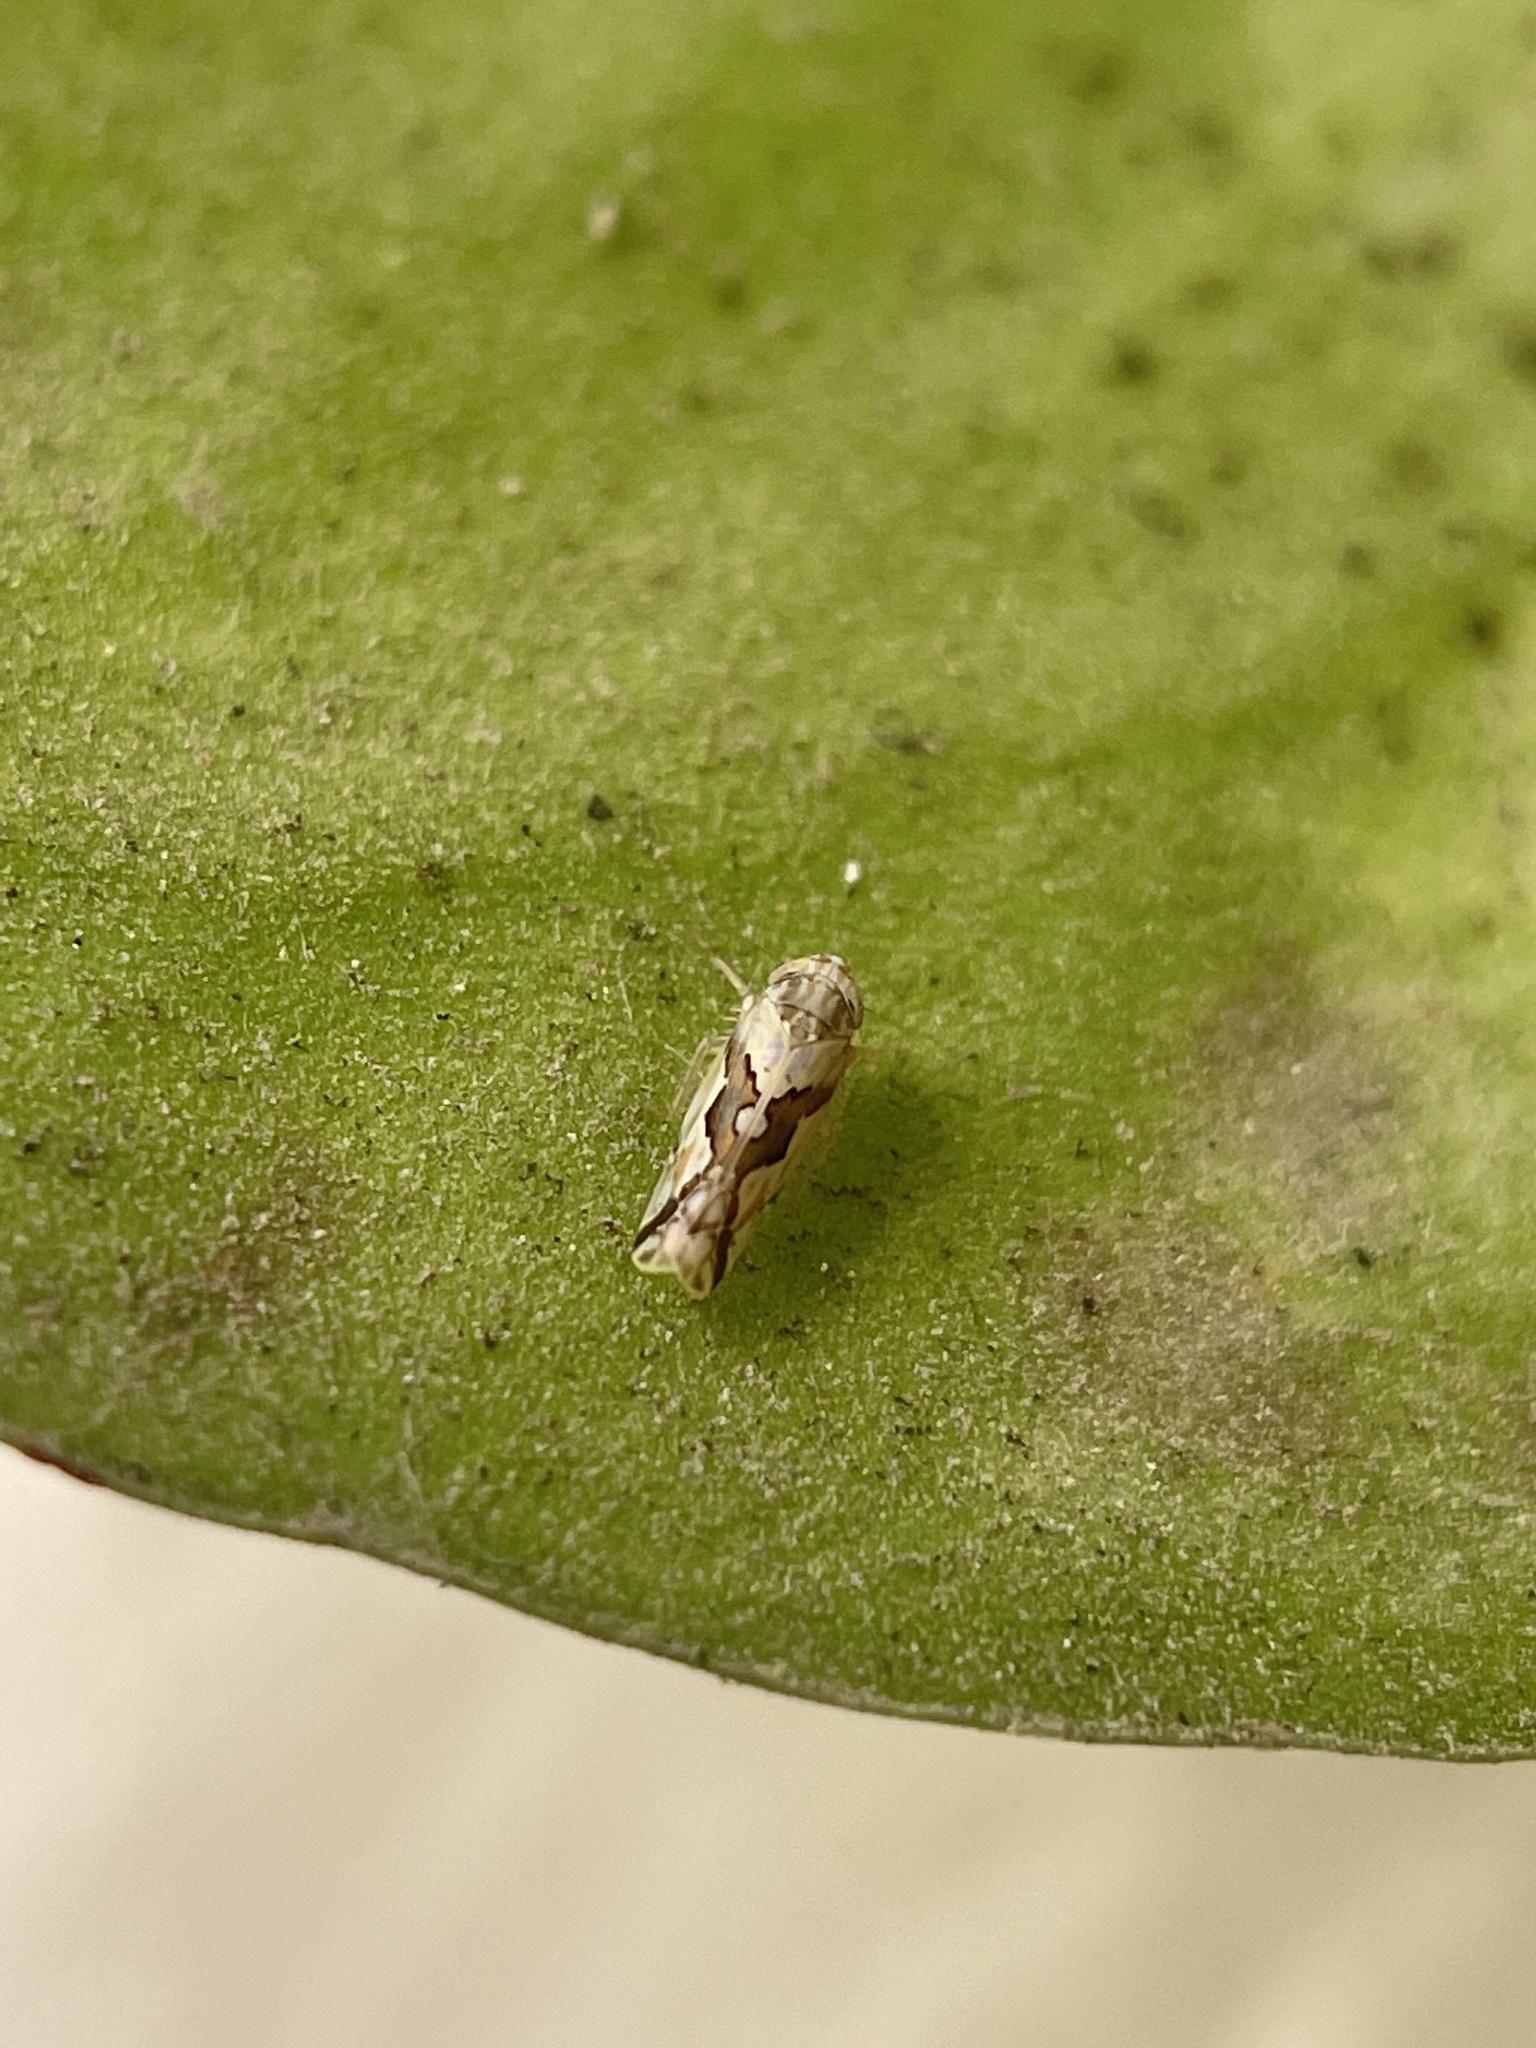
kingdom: Animalia
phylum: Arthropoda
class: Insecta
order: Hemiptera
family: Cicadellidae
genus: Maiestas
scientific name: Maiestas dorsalis
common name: Zig-zag leafhopper
